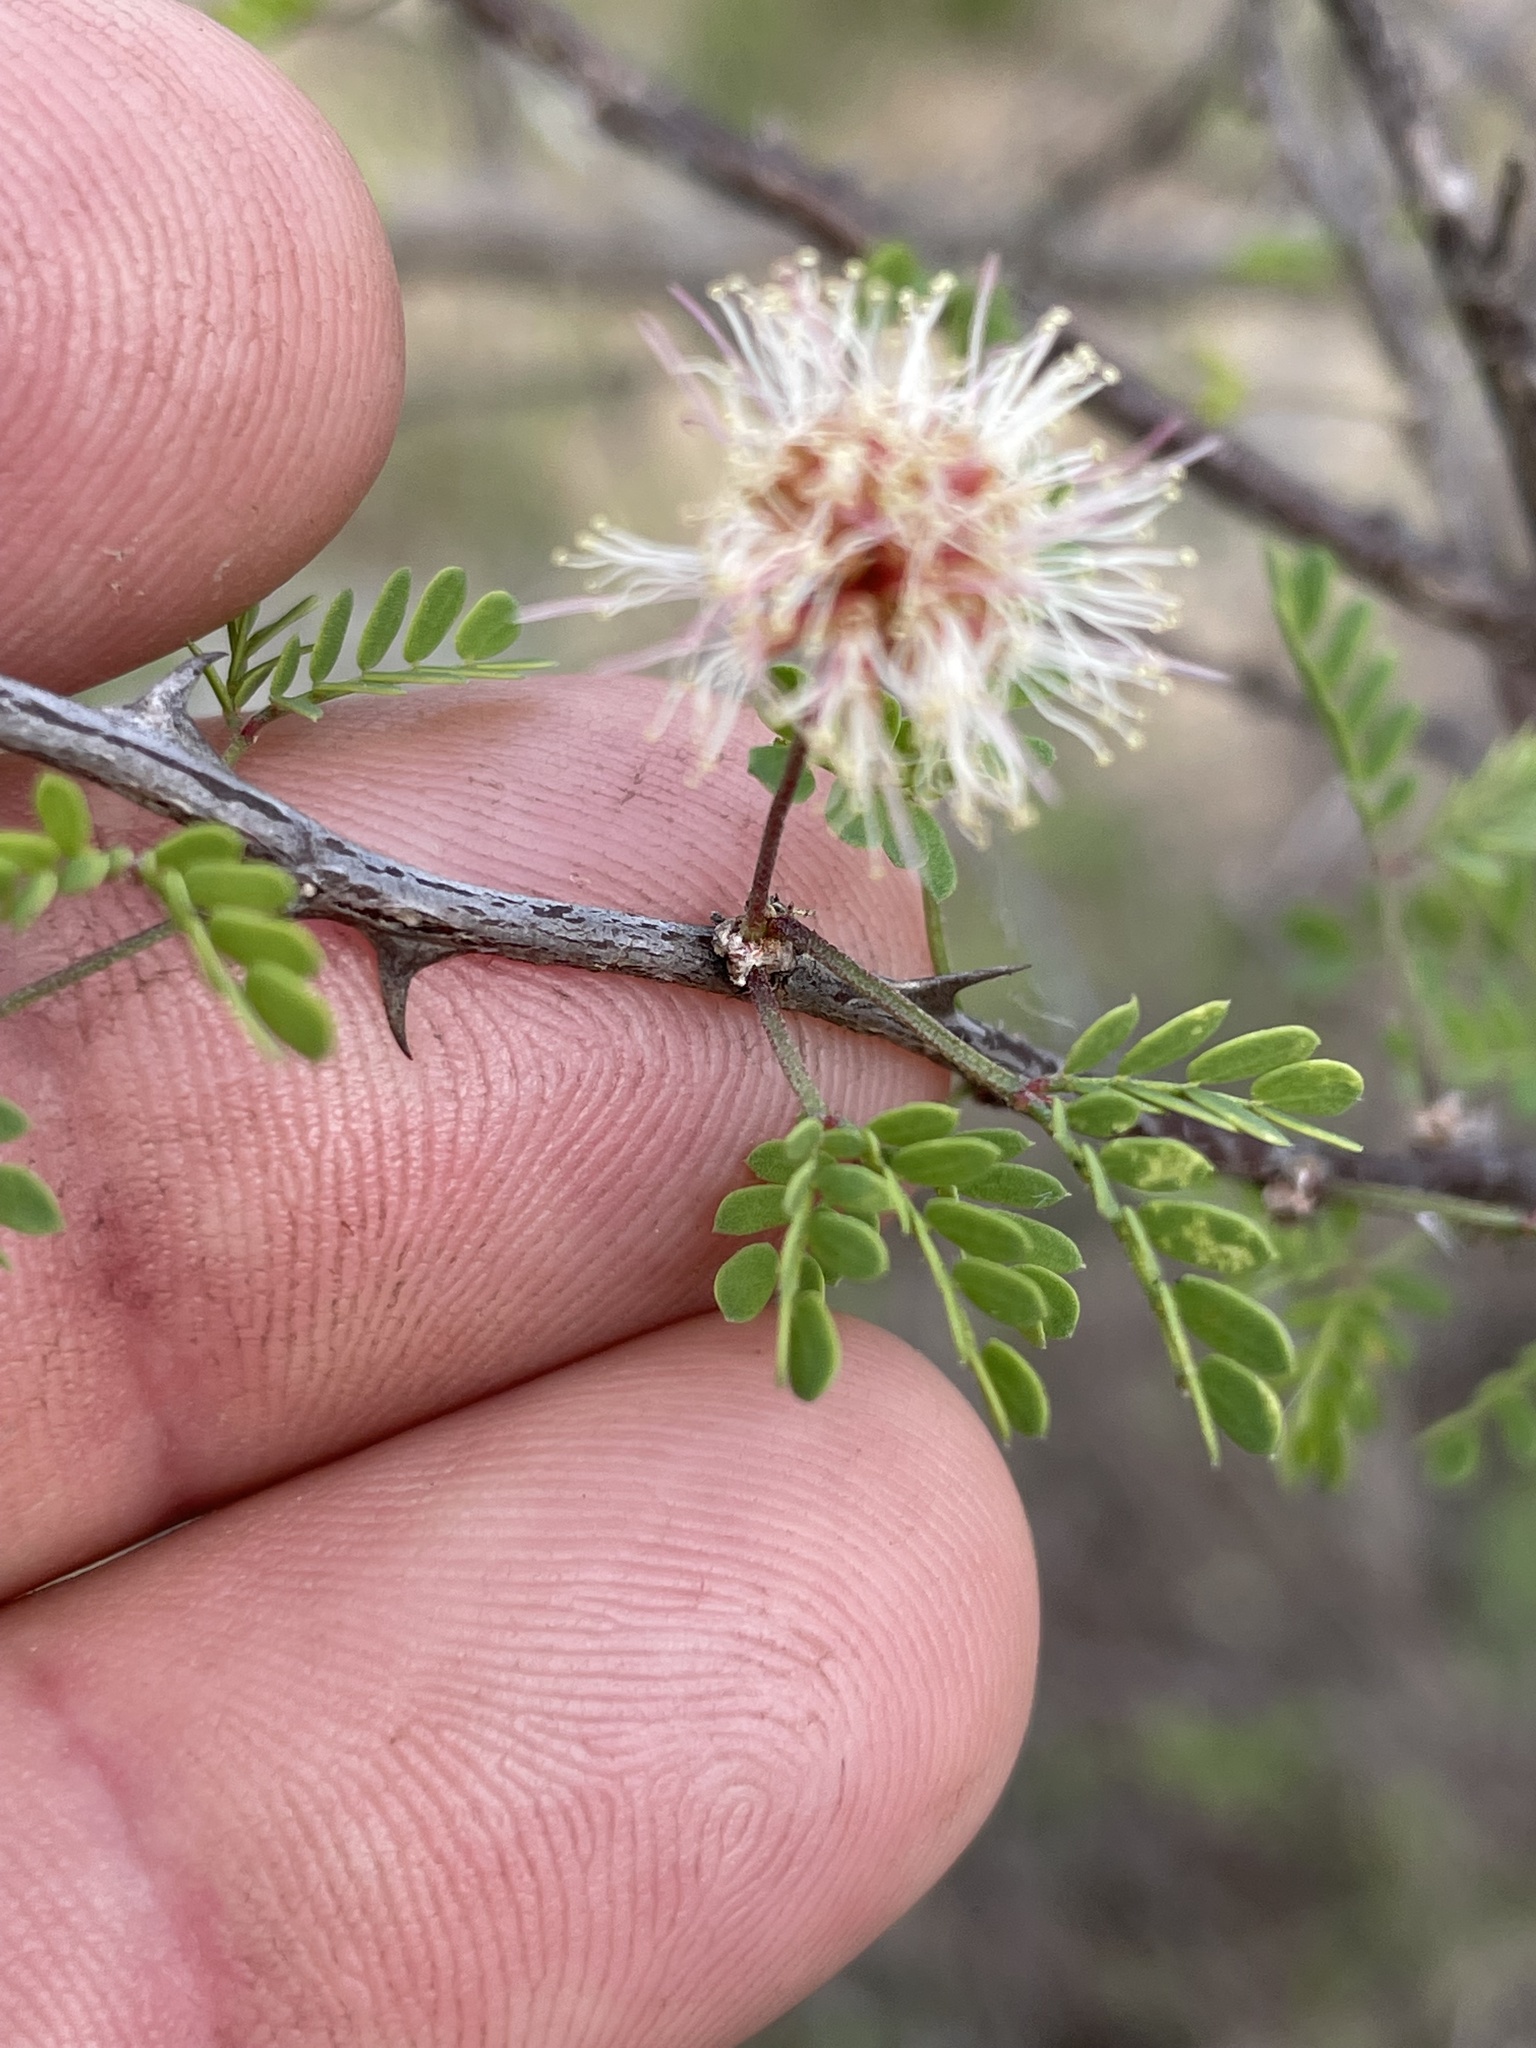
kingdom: Plantae
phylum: Tracheophyta
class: Magnoliopsida
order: Fabales
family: Fabaceae
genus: Mimosa
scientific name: Mimosa texana
